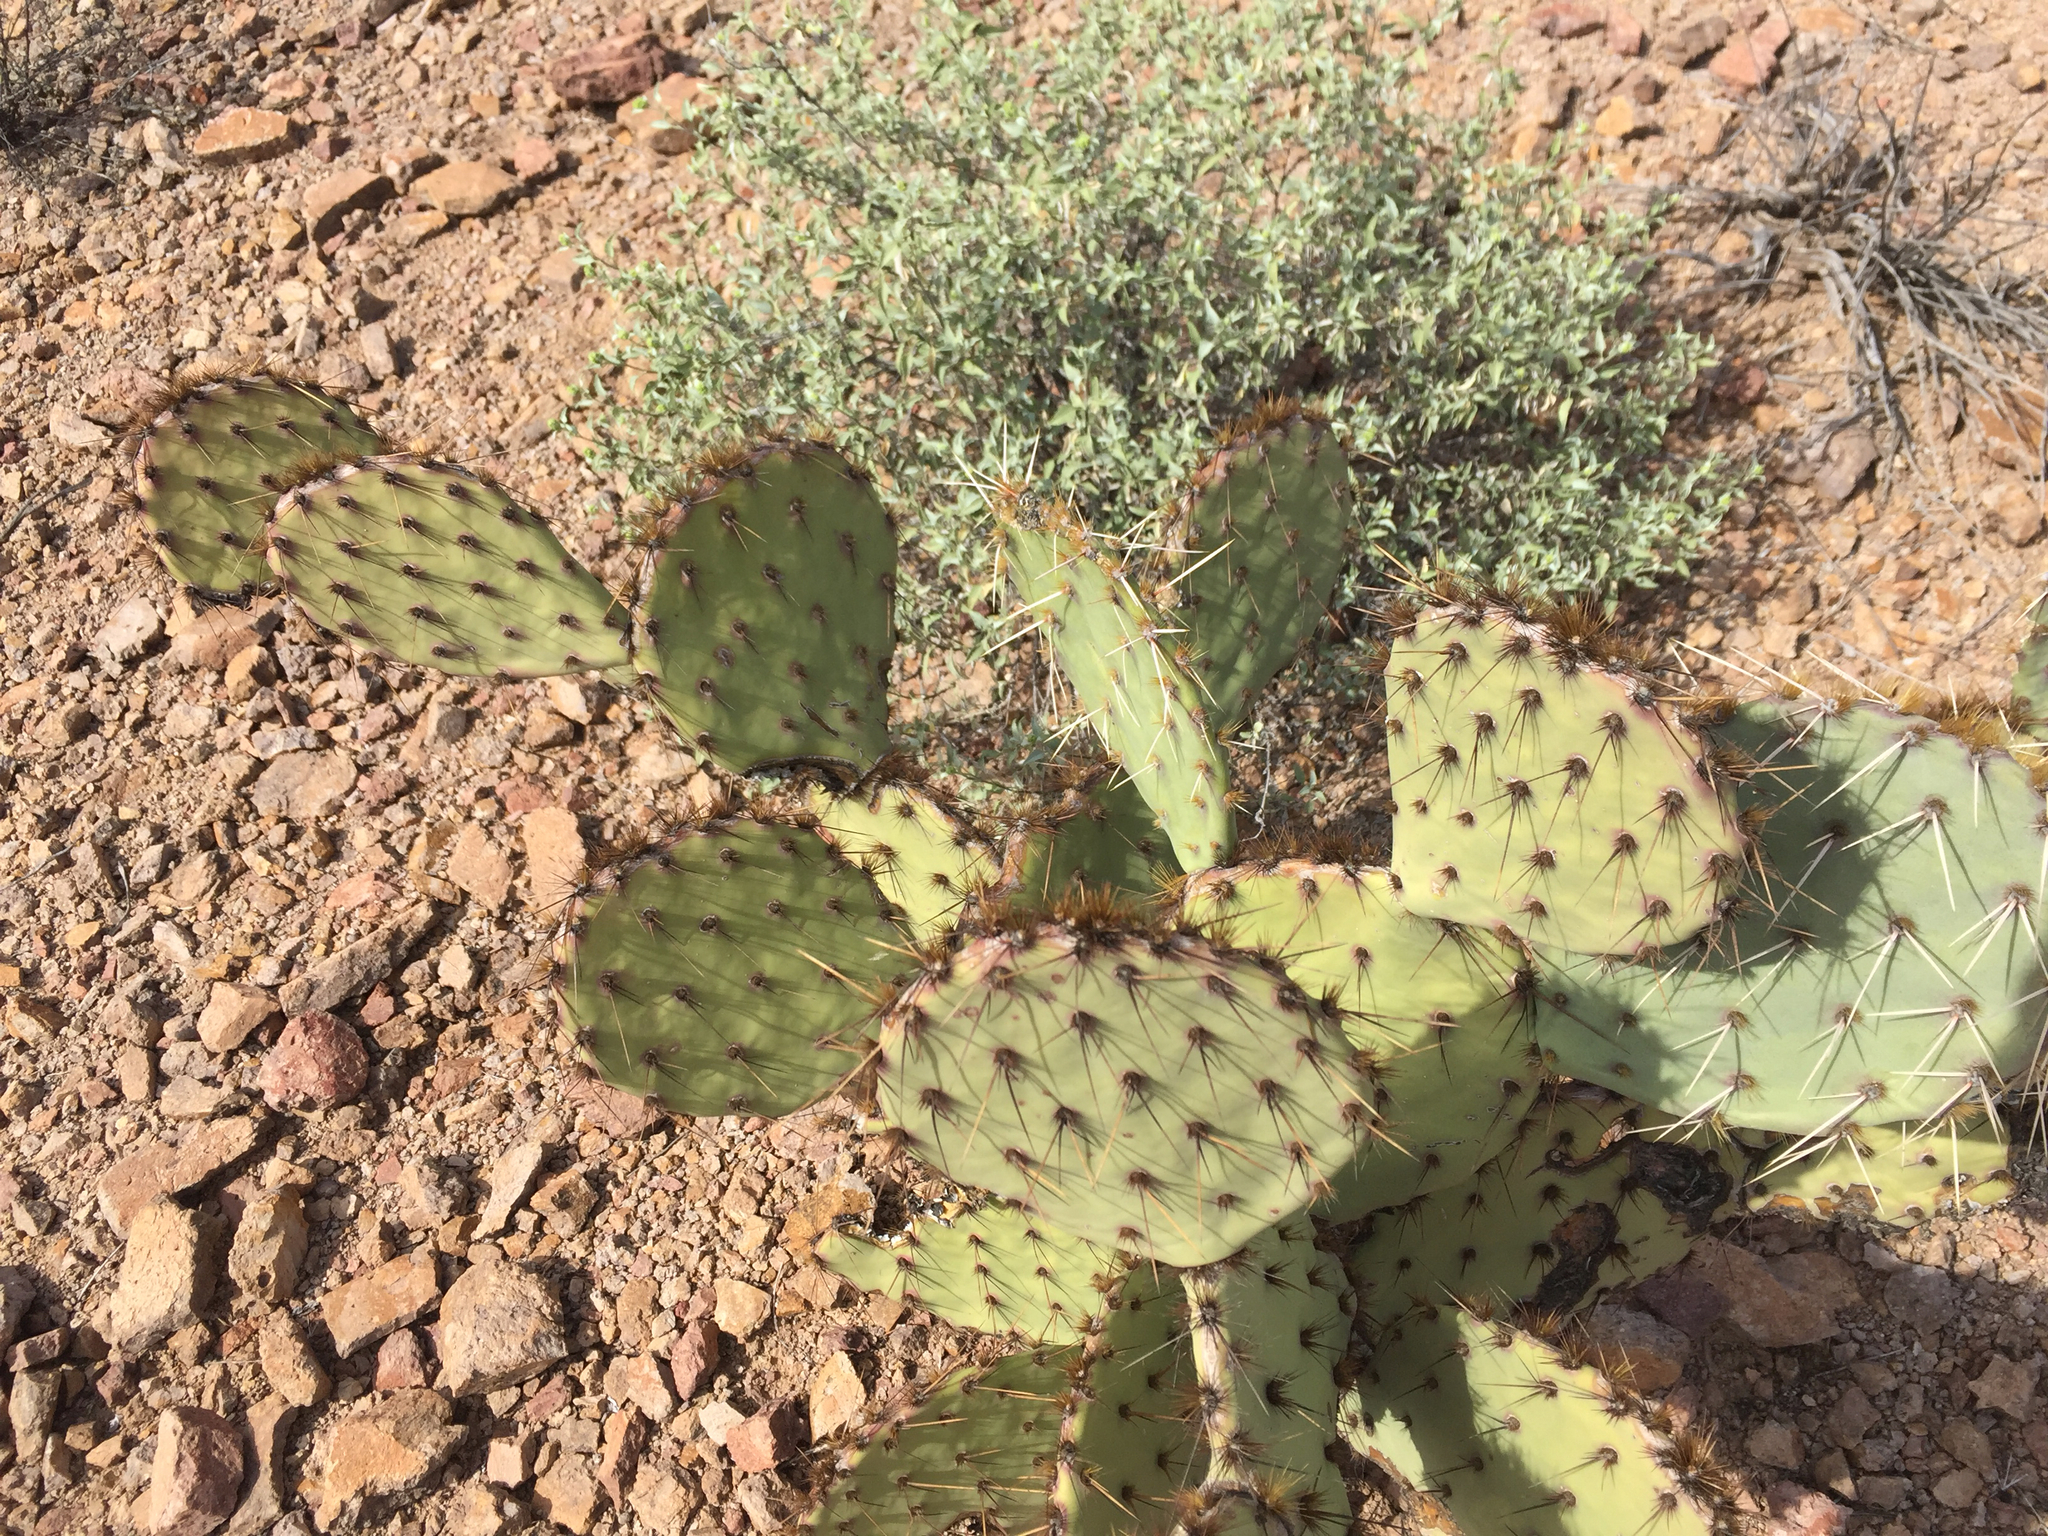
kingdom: Plantae
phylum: Tracheophyta
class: Magnoliopsida
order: Caryophyllales
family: Cactaceae
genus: Opuntia
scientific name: Opuntia engelmannii
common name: Cactus-apple
